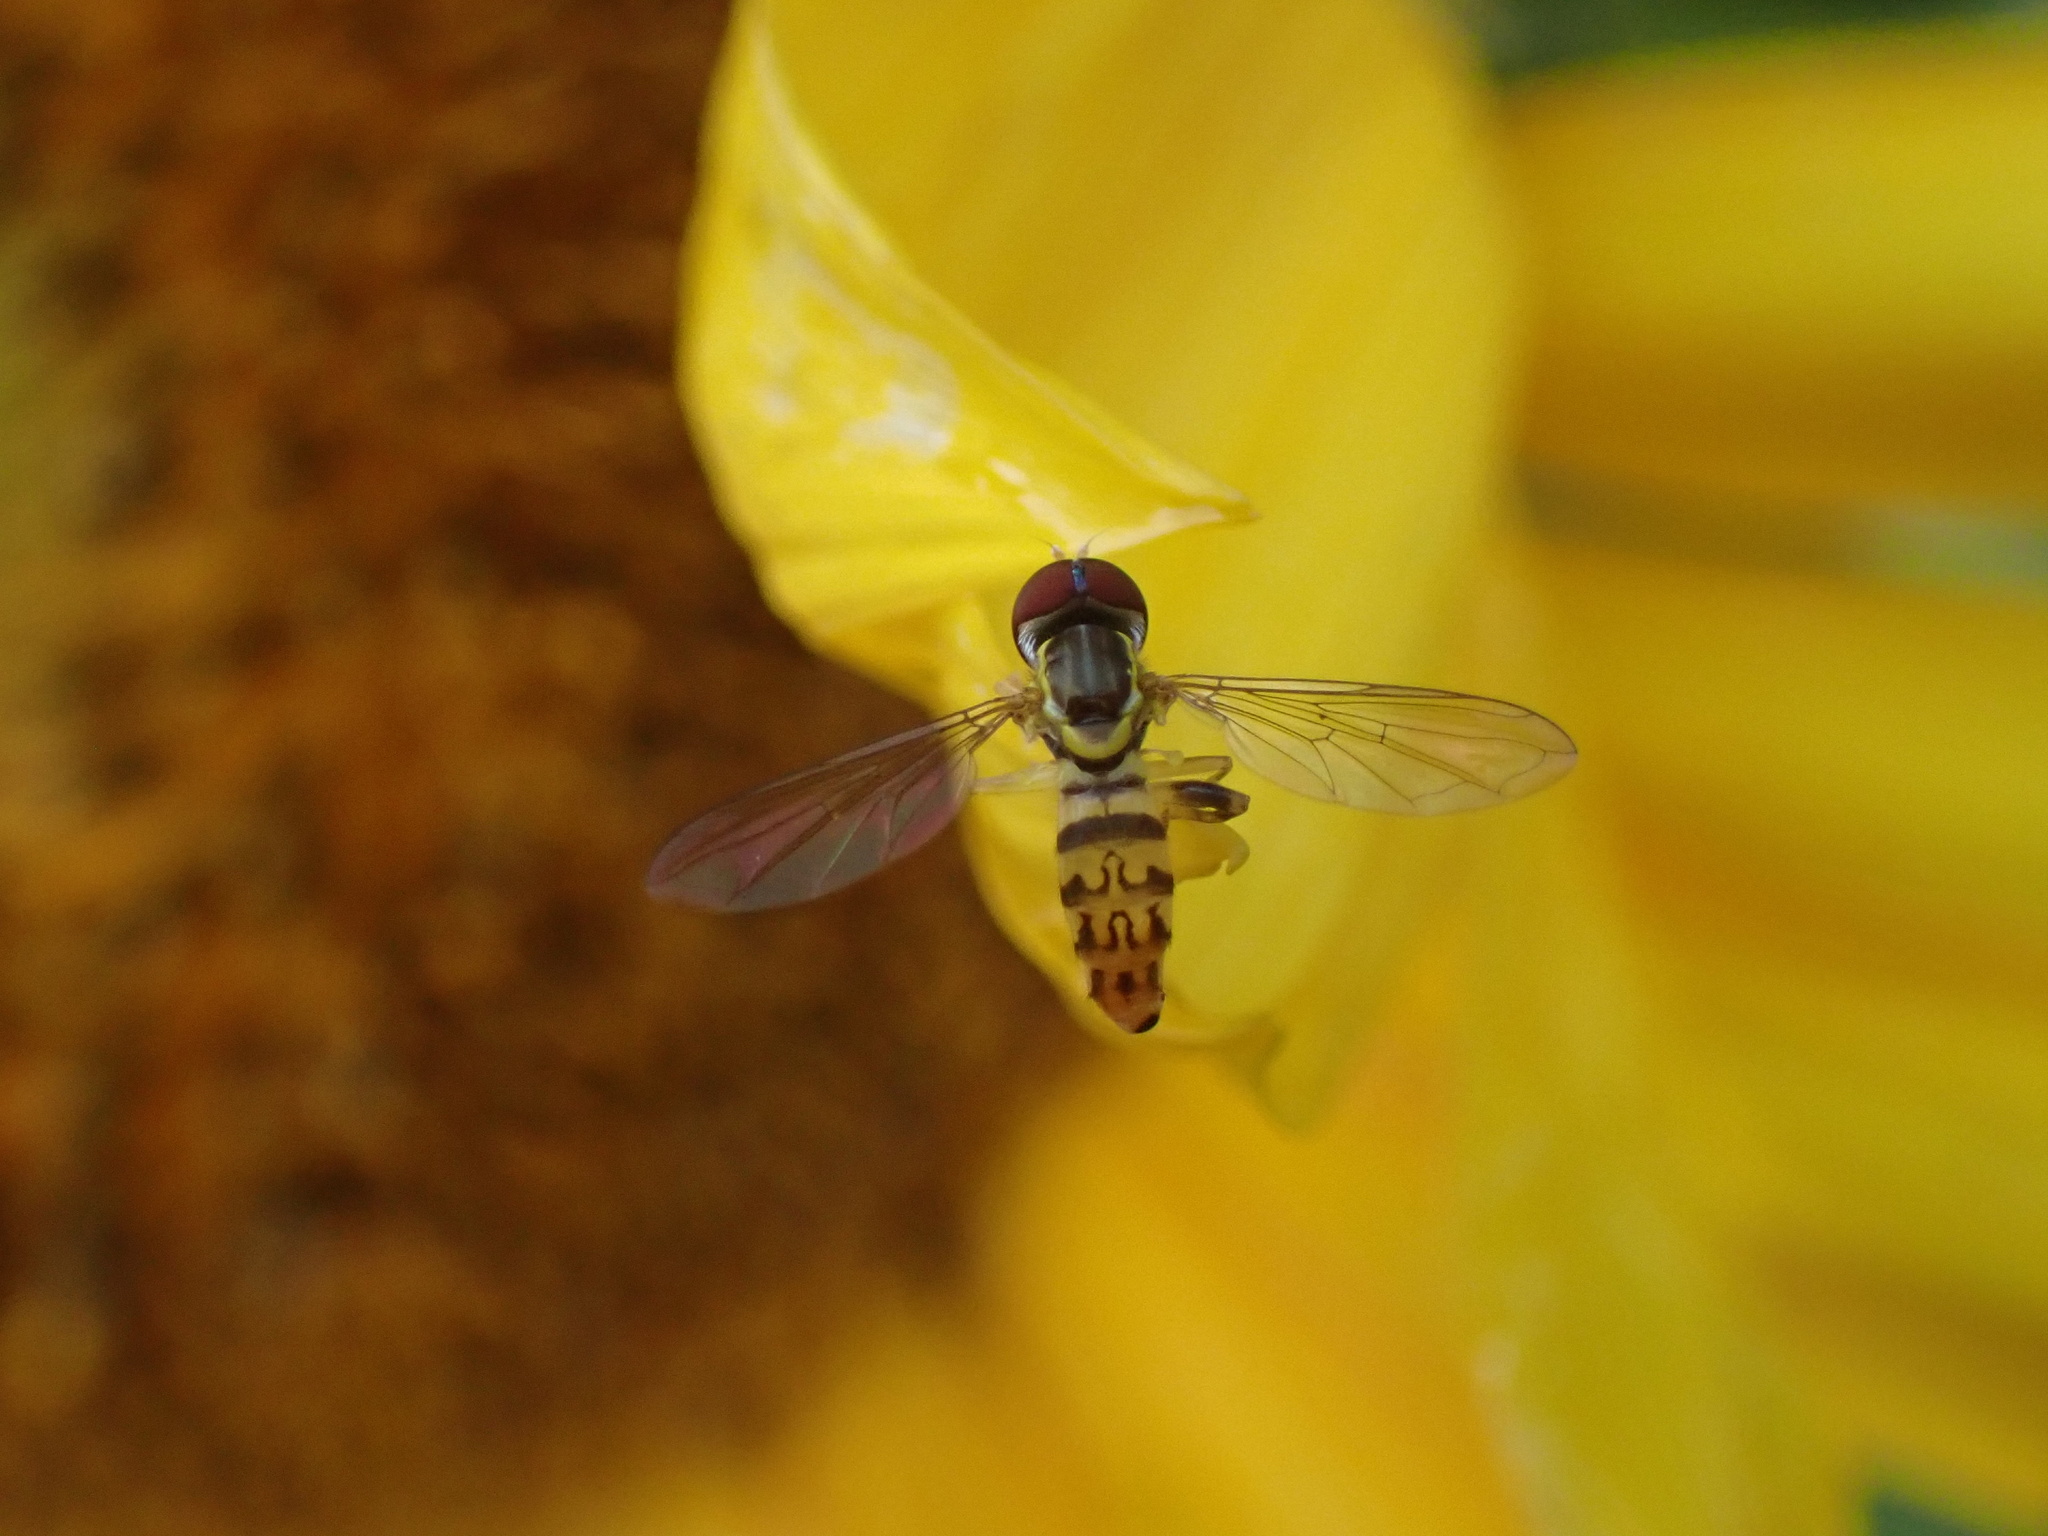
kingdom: Animalia
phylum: Arthropoda
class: Insecta
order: Diptera
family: Syrphidae
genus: Toxomerus
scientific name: Toxomerus geminatus
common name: Eastern calligrapher
